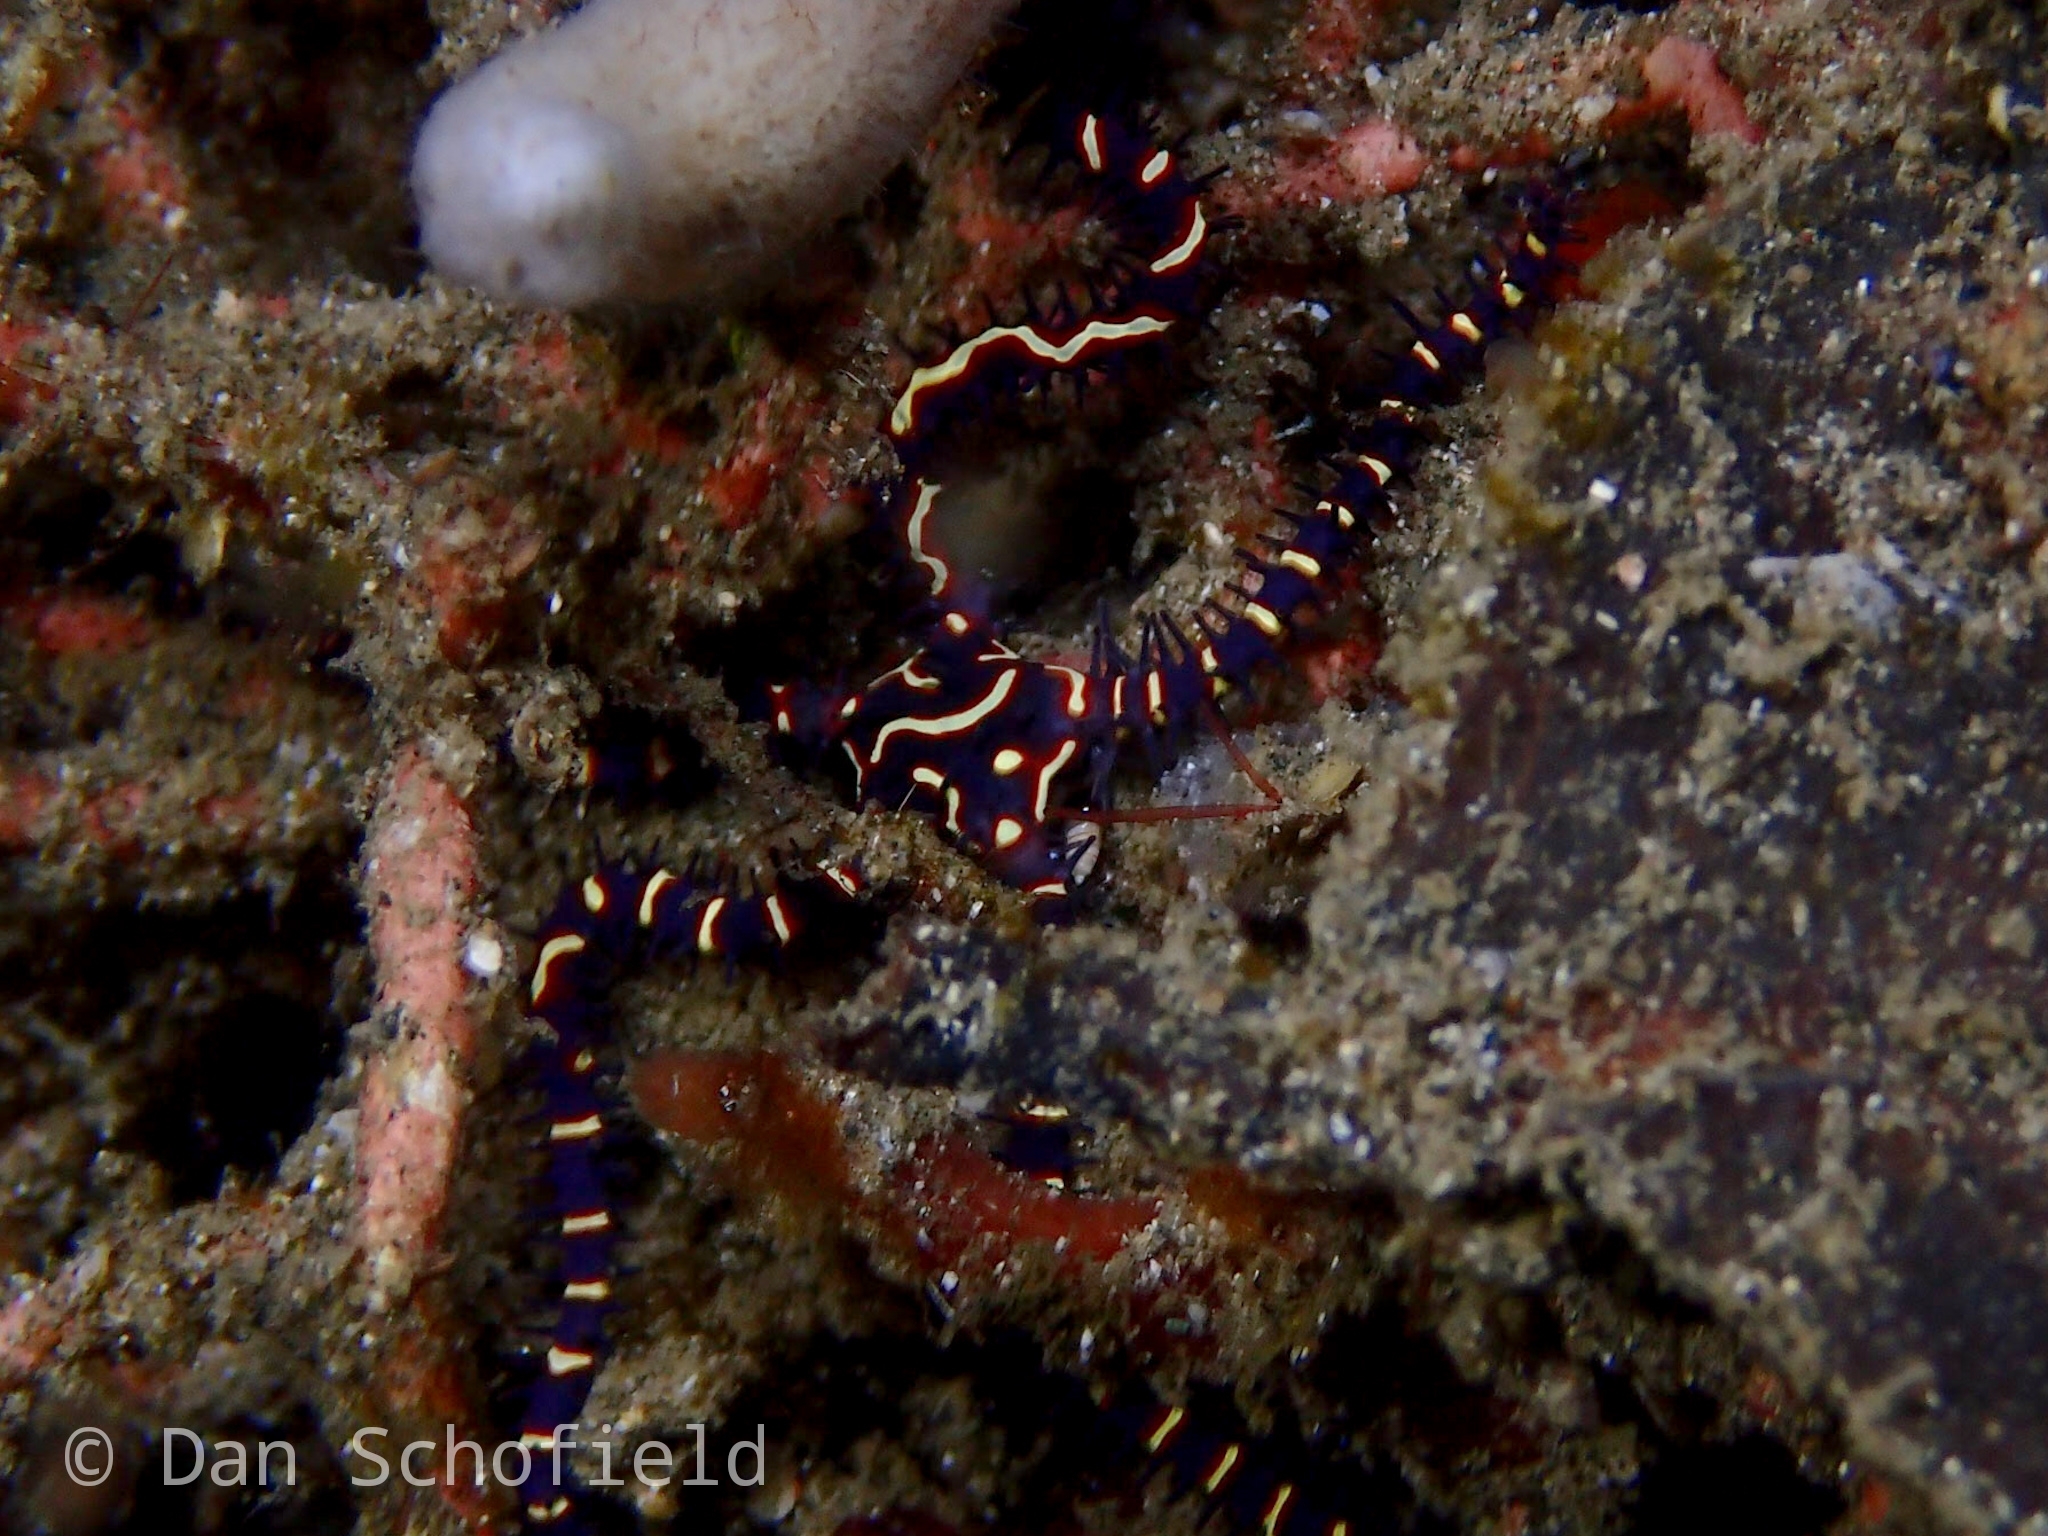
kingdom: Animalia
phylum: Echinodermata
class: Ophiuroidea
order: Ophiacanthida
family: Ophiocomidae
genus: Ophiomastix
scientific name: Ophiomastix flaccida
